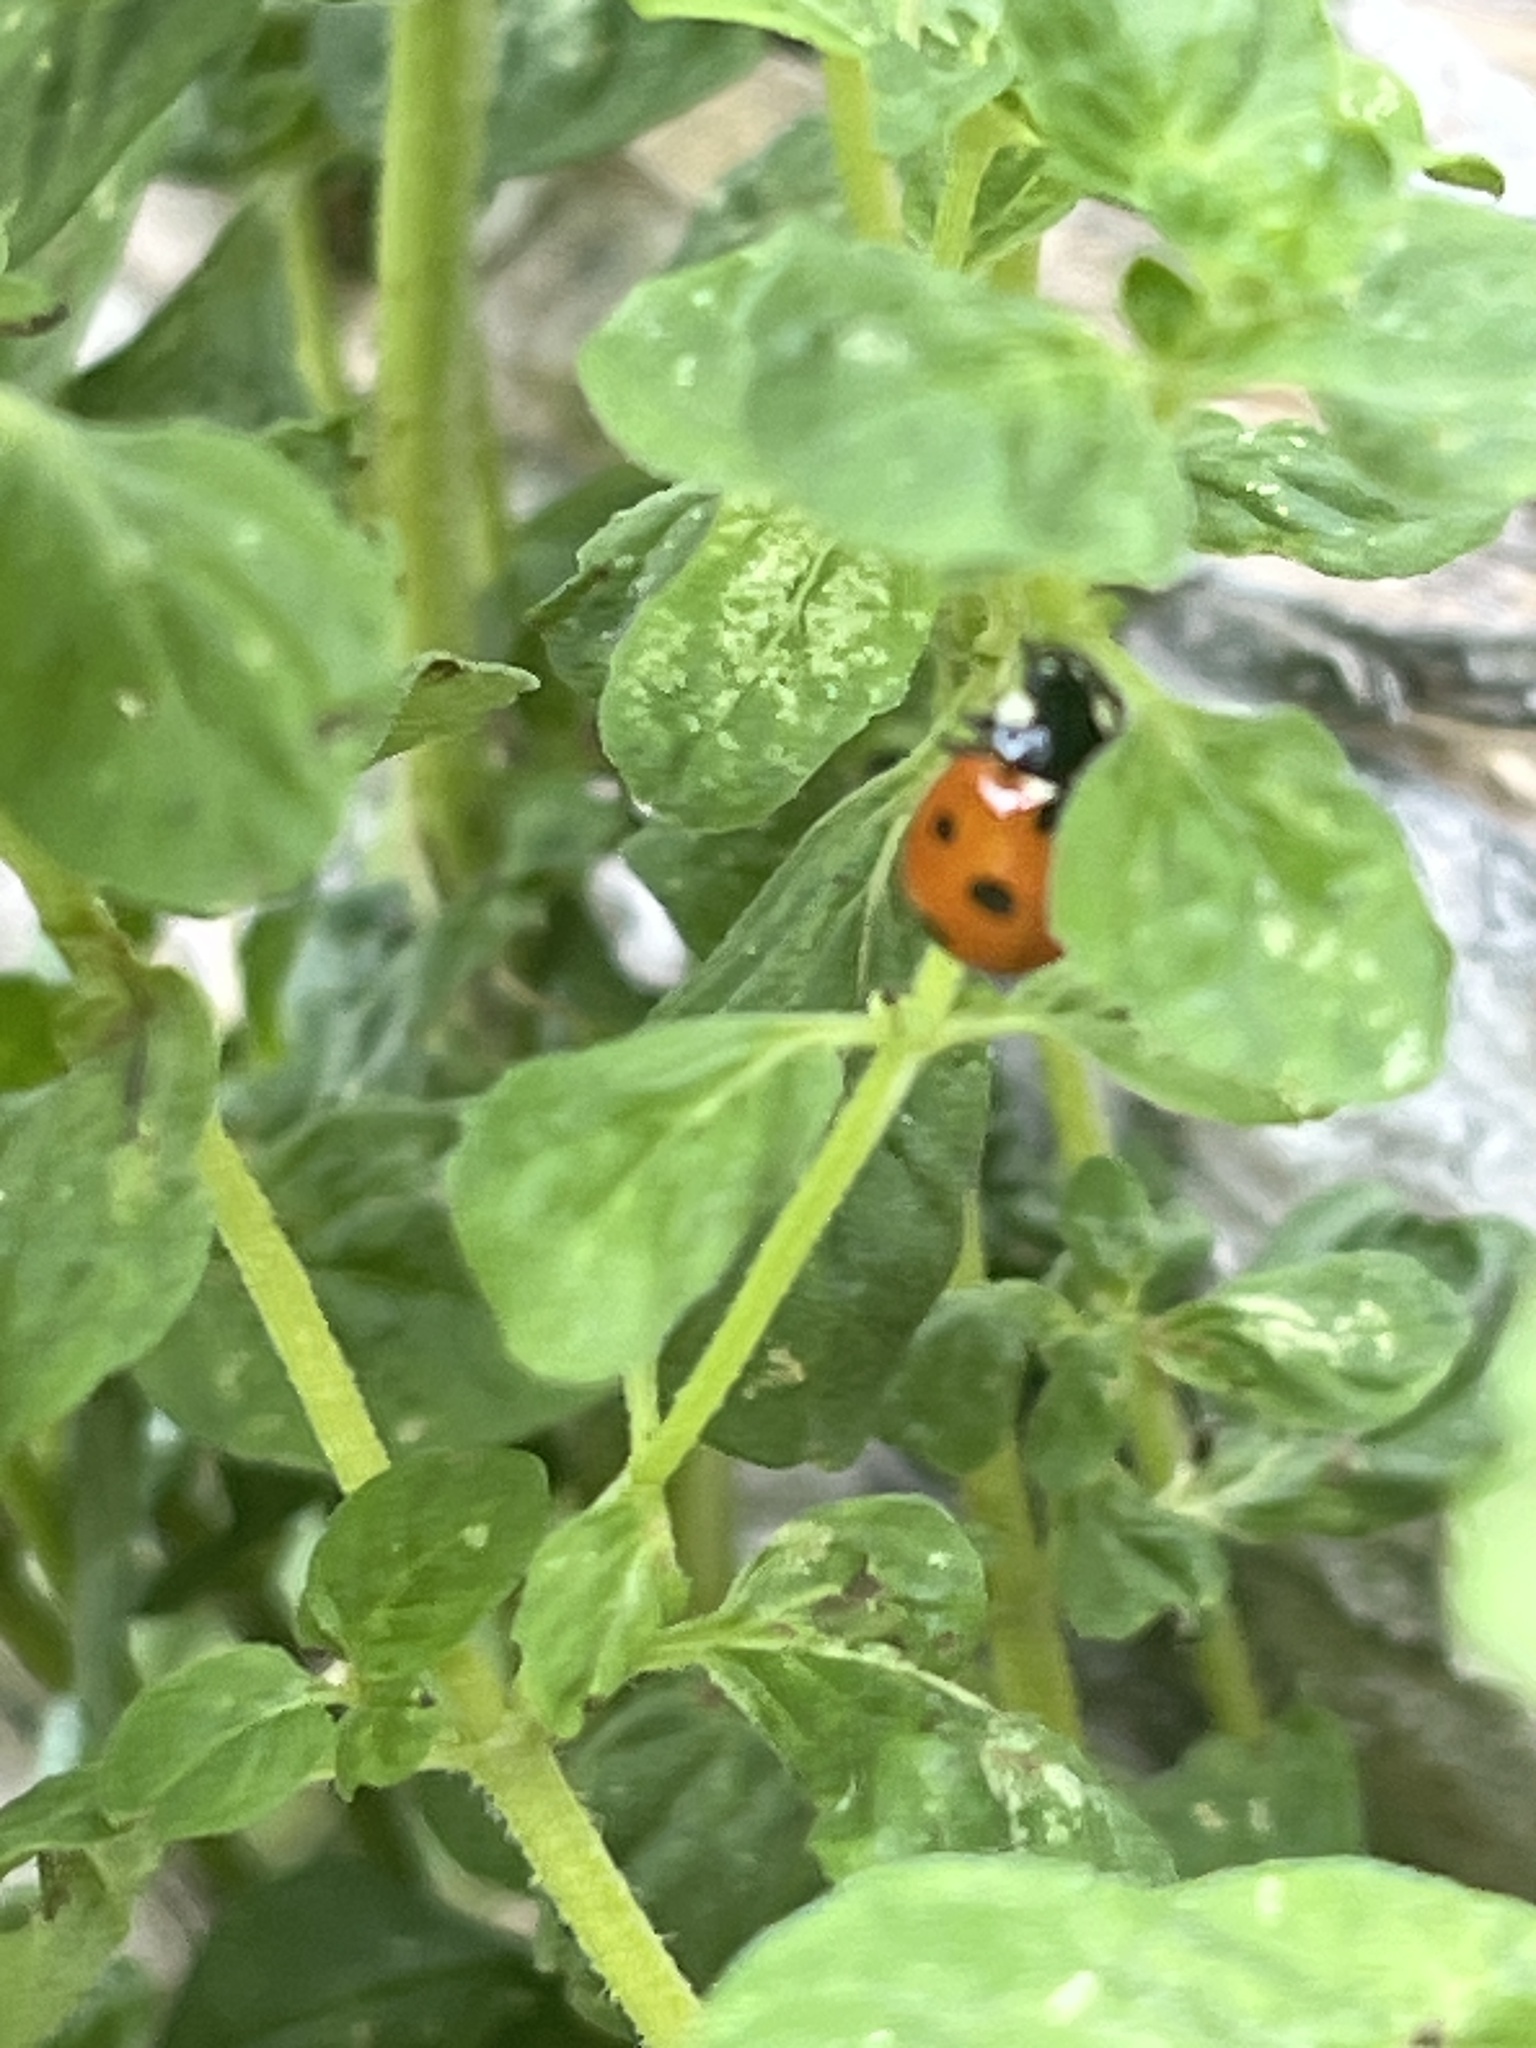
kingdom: Animalia
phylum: Arthropoda
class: Insecta
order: Coleoptera
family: Coccinellidae
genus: Coccinella
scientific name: Coccinella septempunctata
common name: Sevenspotted lady beetle
